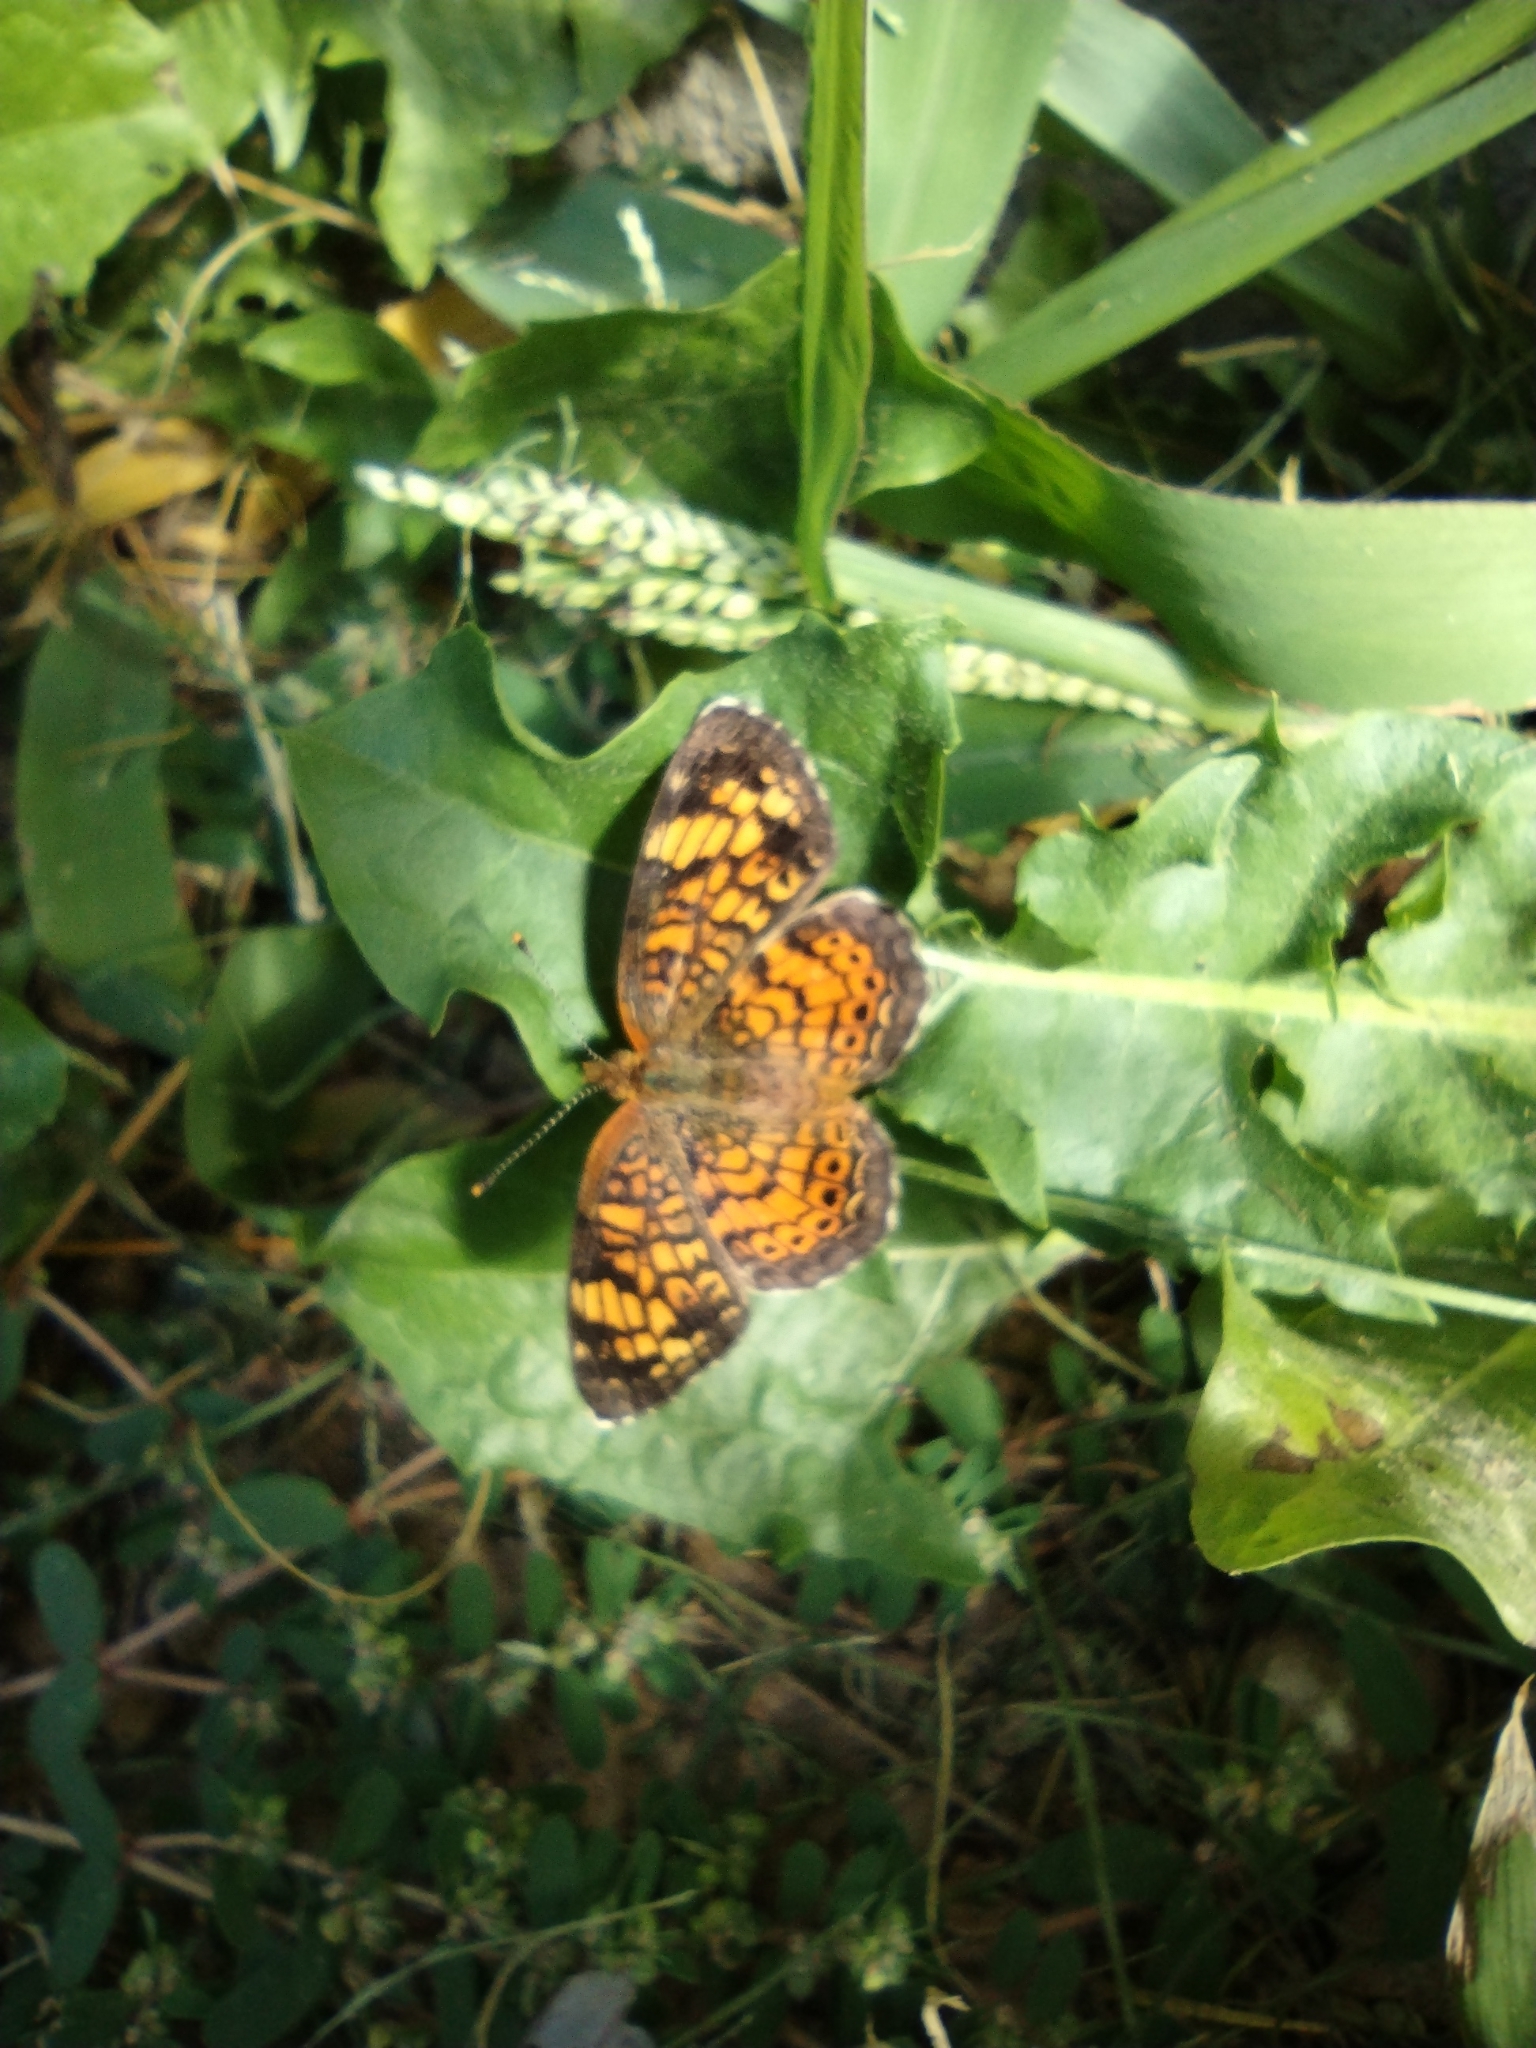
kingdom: Animalia
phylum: Arthropoda
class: Insecta
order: Lepidoptera
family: Nymphalidae
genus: Phyciodes
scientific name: Phyciodes tharos
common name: Pearl crescent
